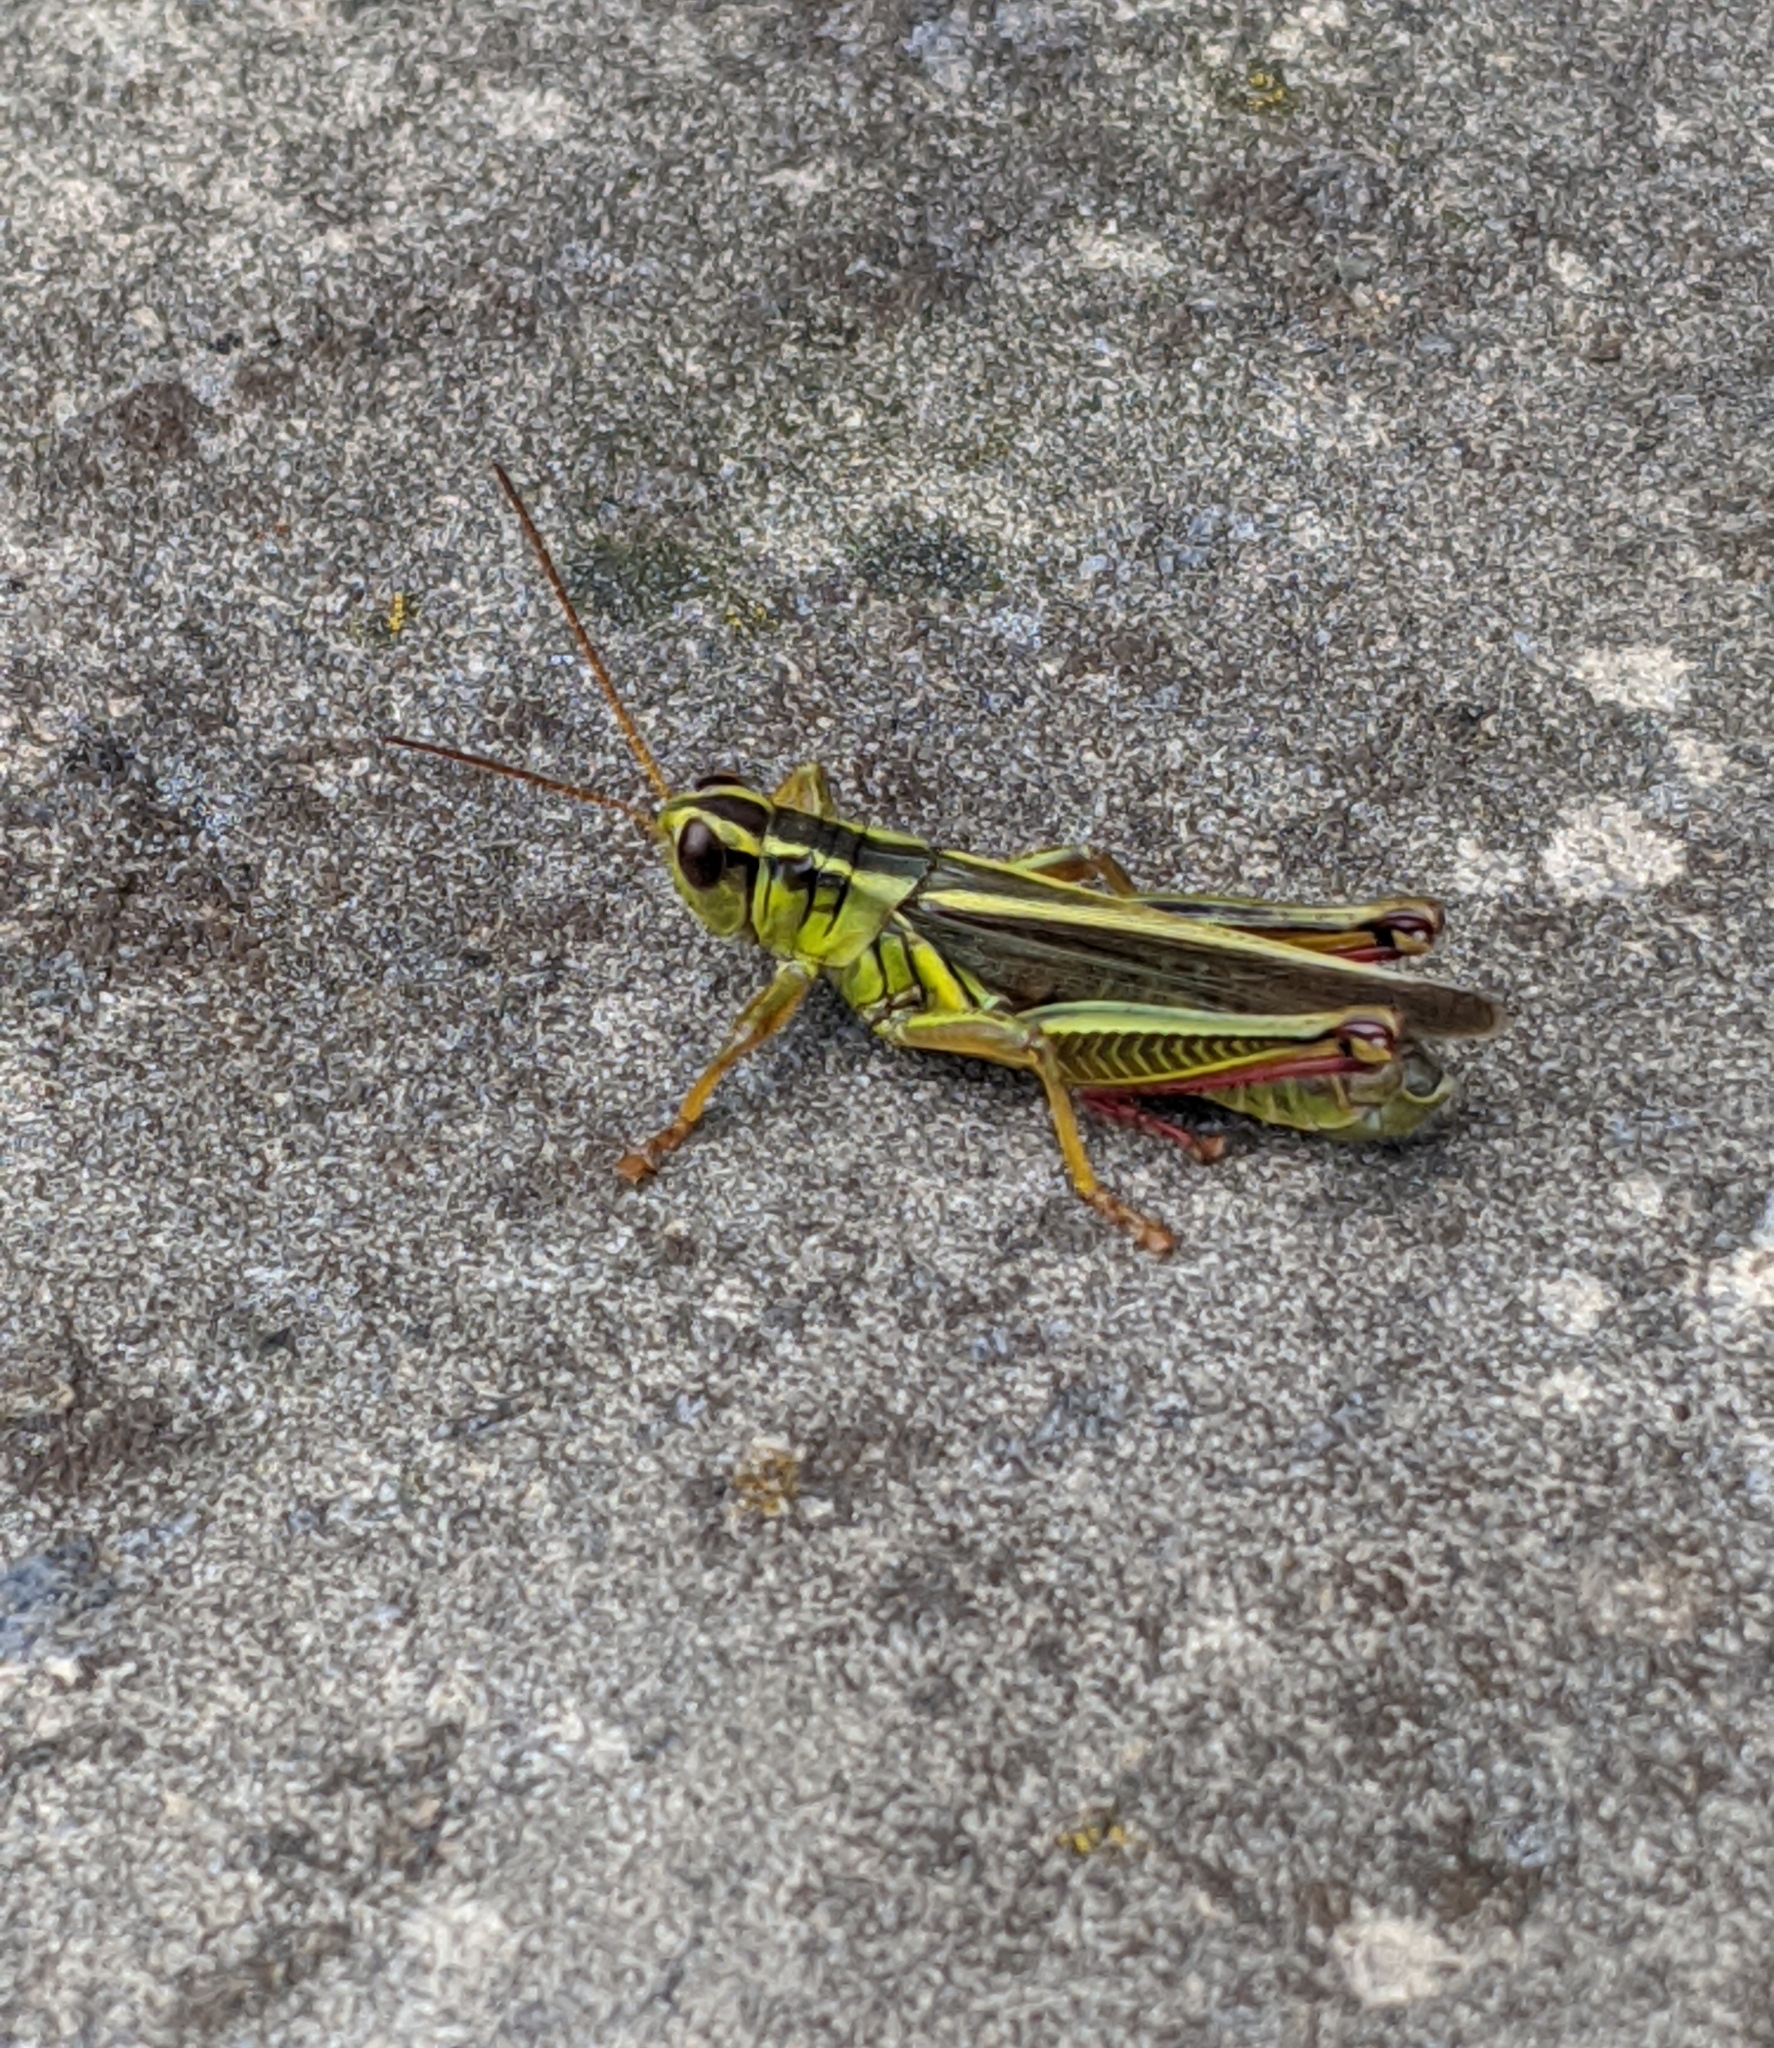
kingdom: Animalia
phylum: Arthropoda
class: Insecta
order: Orthoptera
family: Acrididae
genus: Melanoplus
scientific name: Melanoplus bivittatus
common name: Two-striped grasshopper
